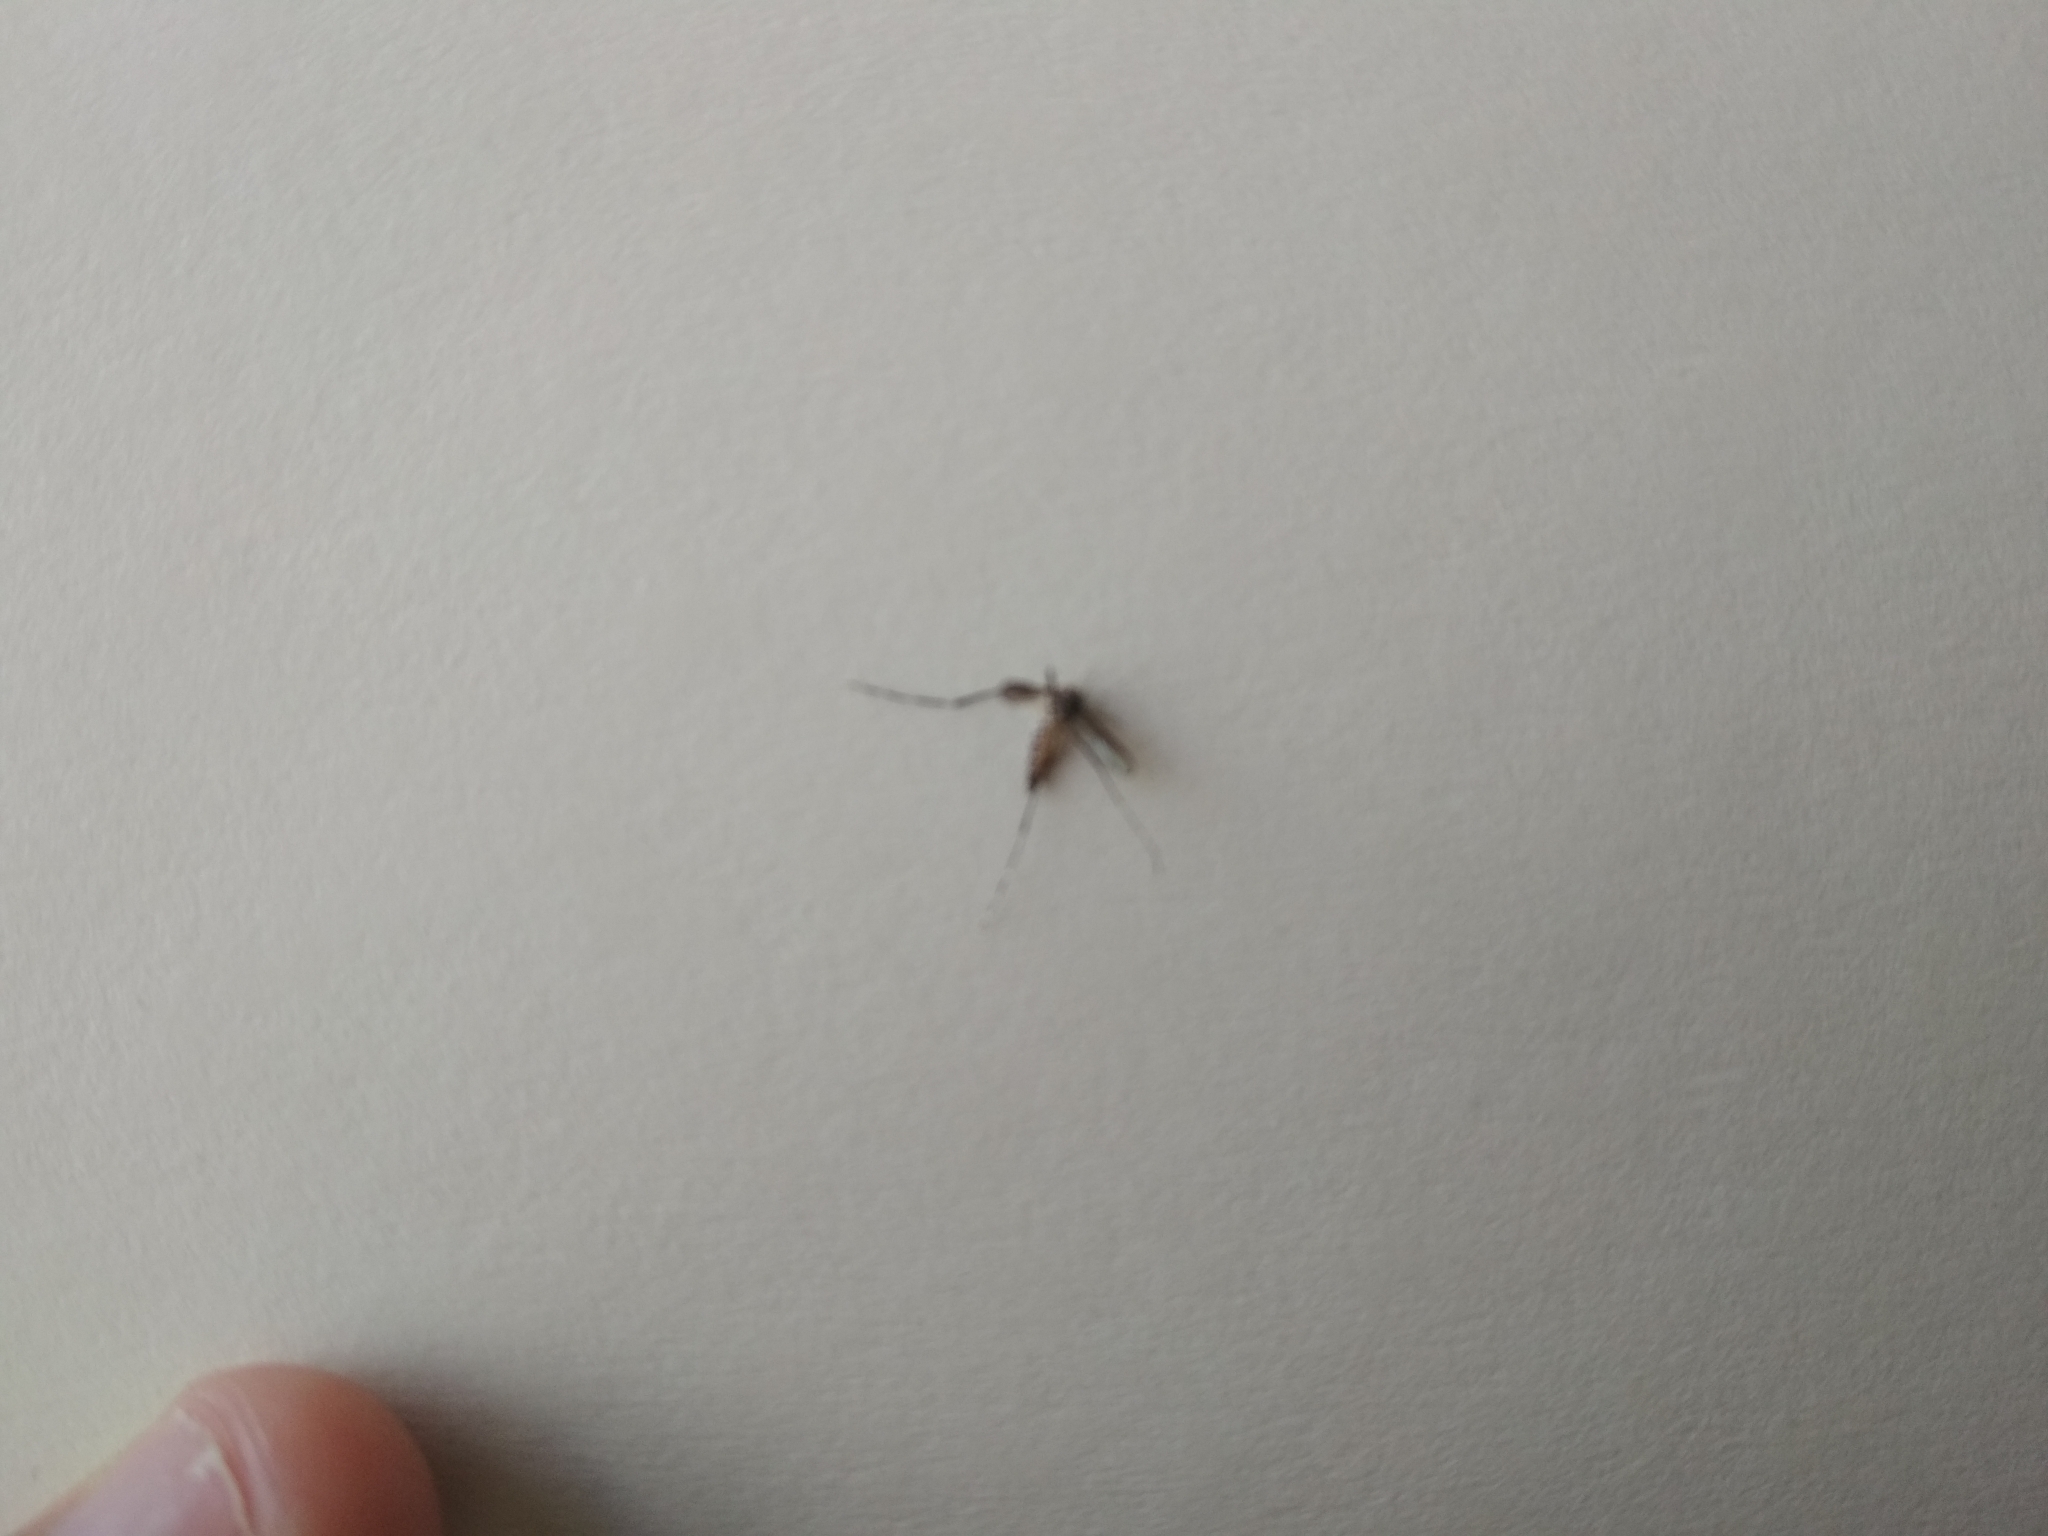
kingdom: Animalia
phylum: Arthropoda
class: Insecta
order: Diptera
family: Culicidae
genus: Aedes
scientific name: Aedes aegypti
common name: Yellow fever mosquito
